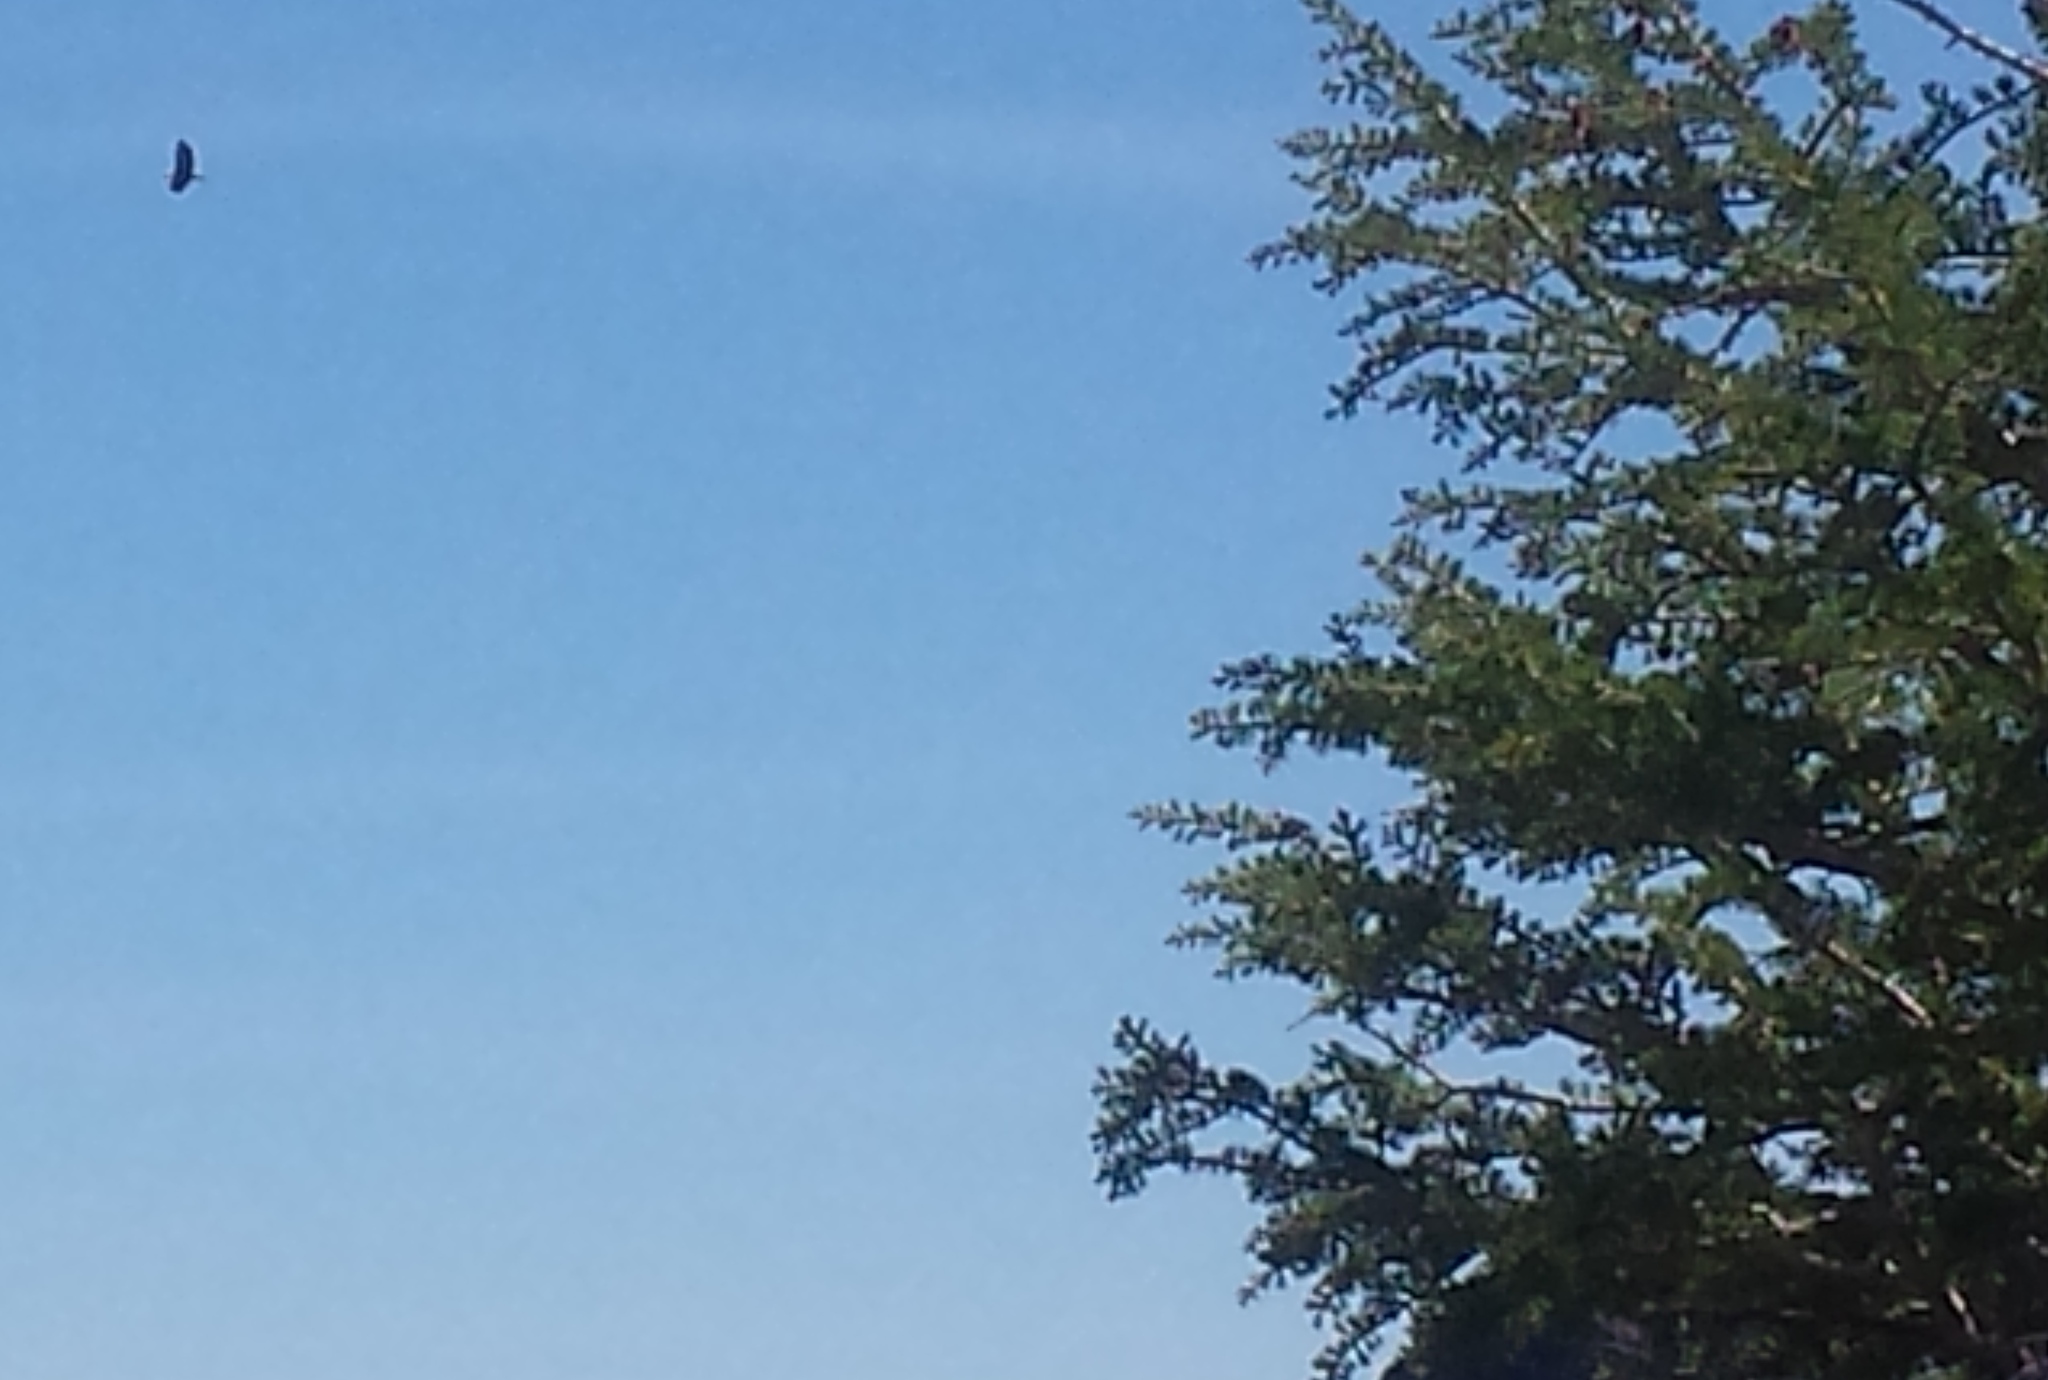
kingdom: Animalia
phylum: Chordata
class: Aves
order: Accipitriformes
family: Accipitridae
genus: Haliaeetus
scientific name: Haliaeetus leucocephalus
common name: Bald eagle
